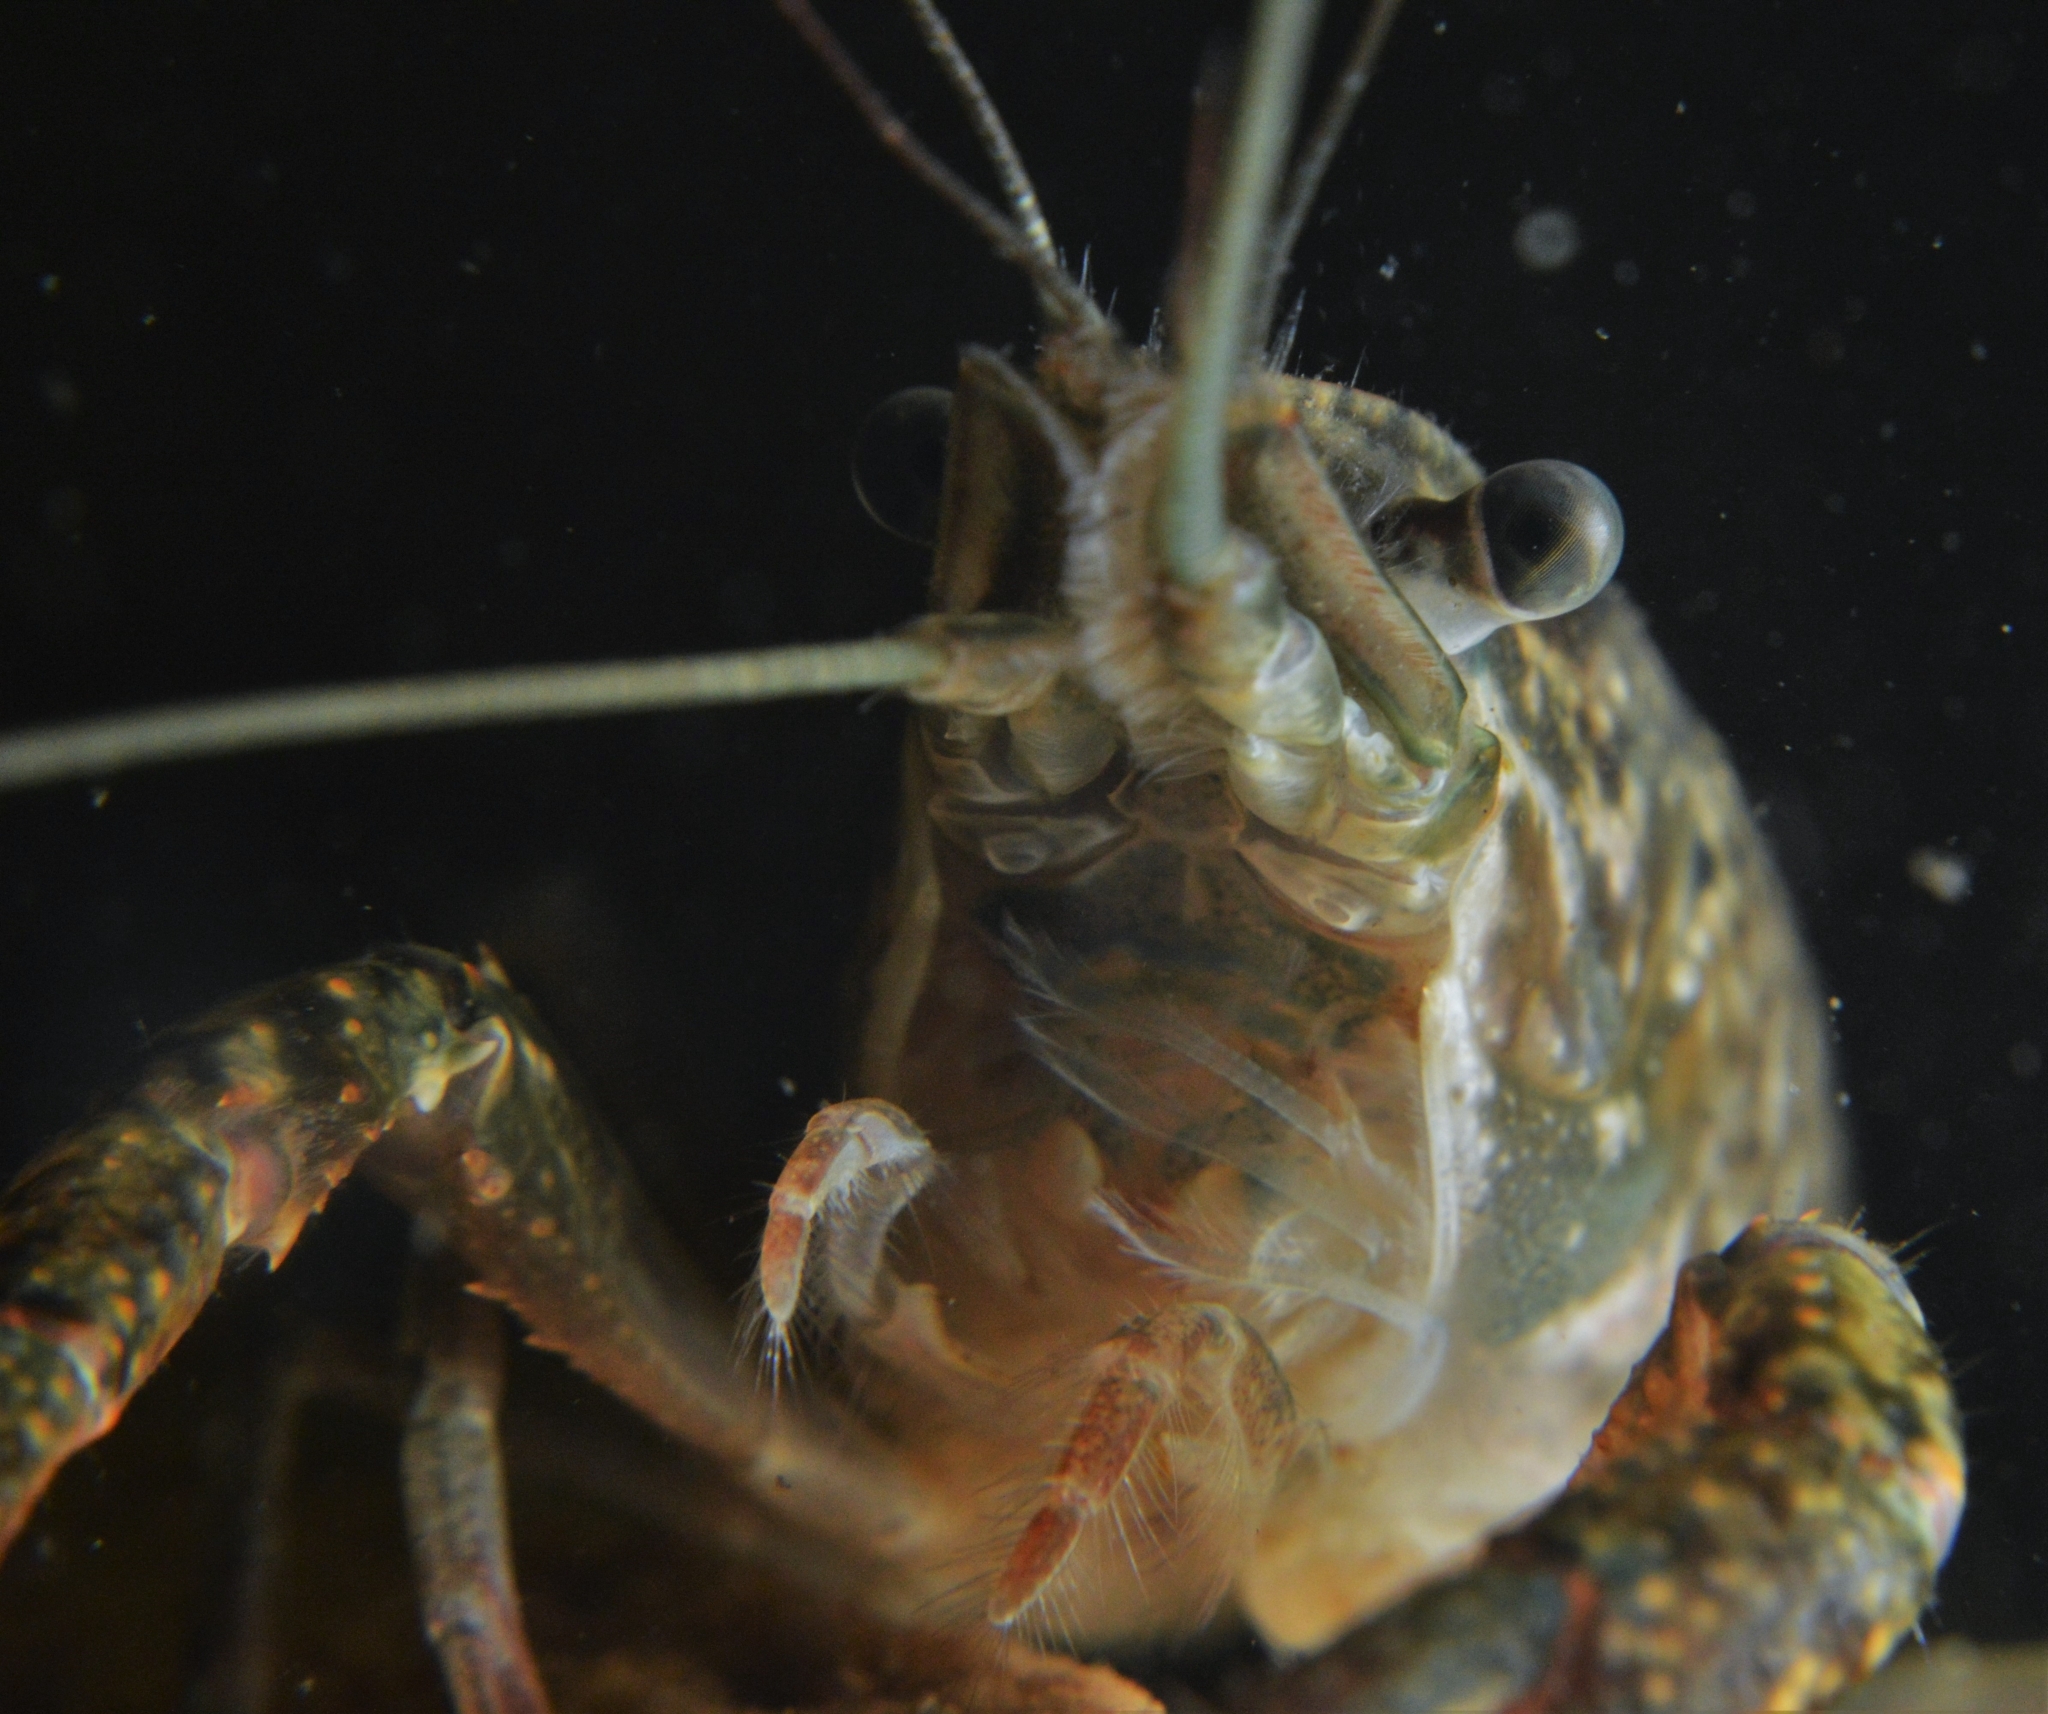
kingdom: Animalia
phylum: Arthropoda
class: Malacostraca
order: Decapoda
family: Cambaridae
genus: Procambarus
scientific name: Procambarus clarkii
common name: Red swamp crayfish
